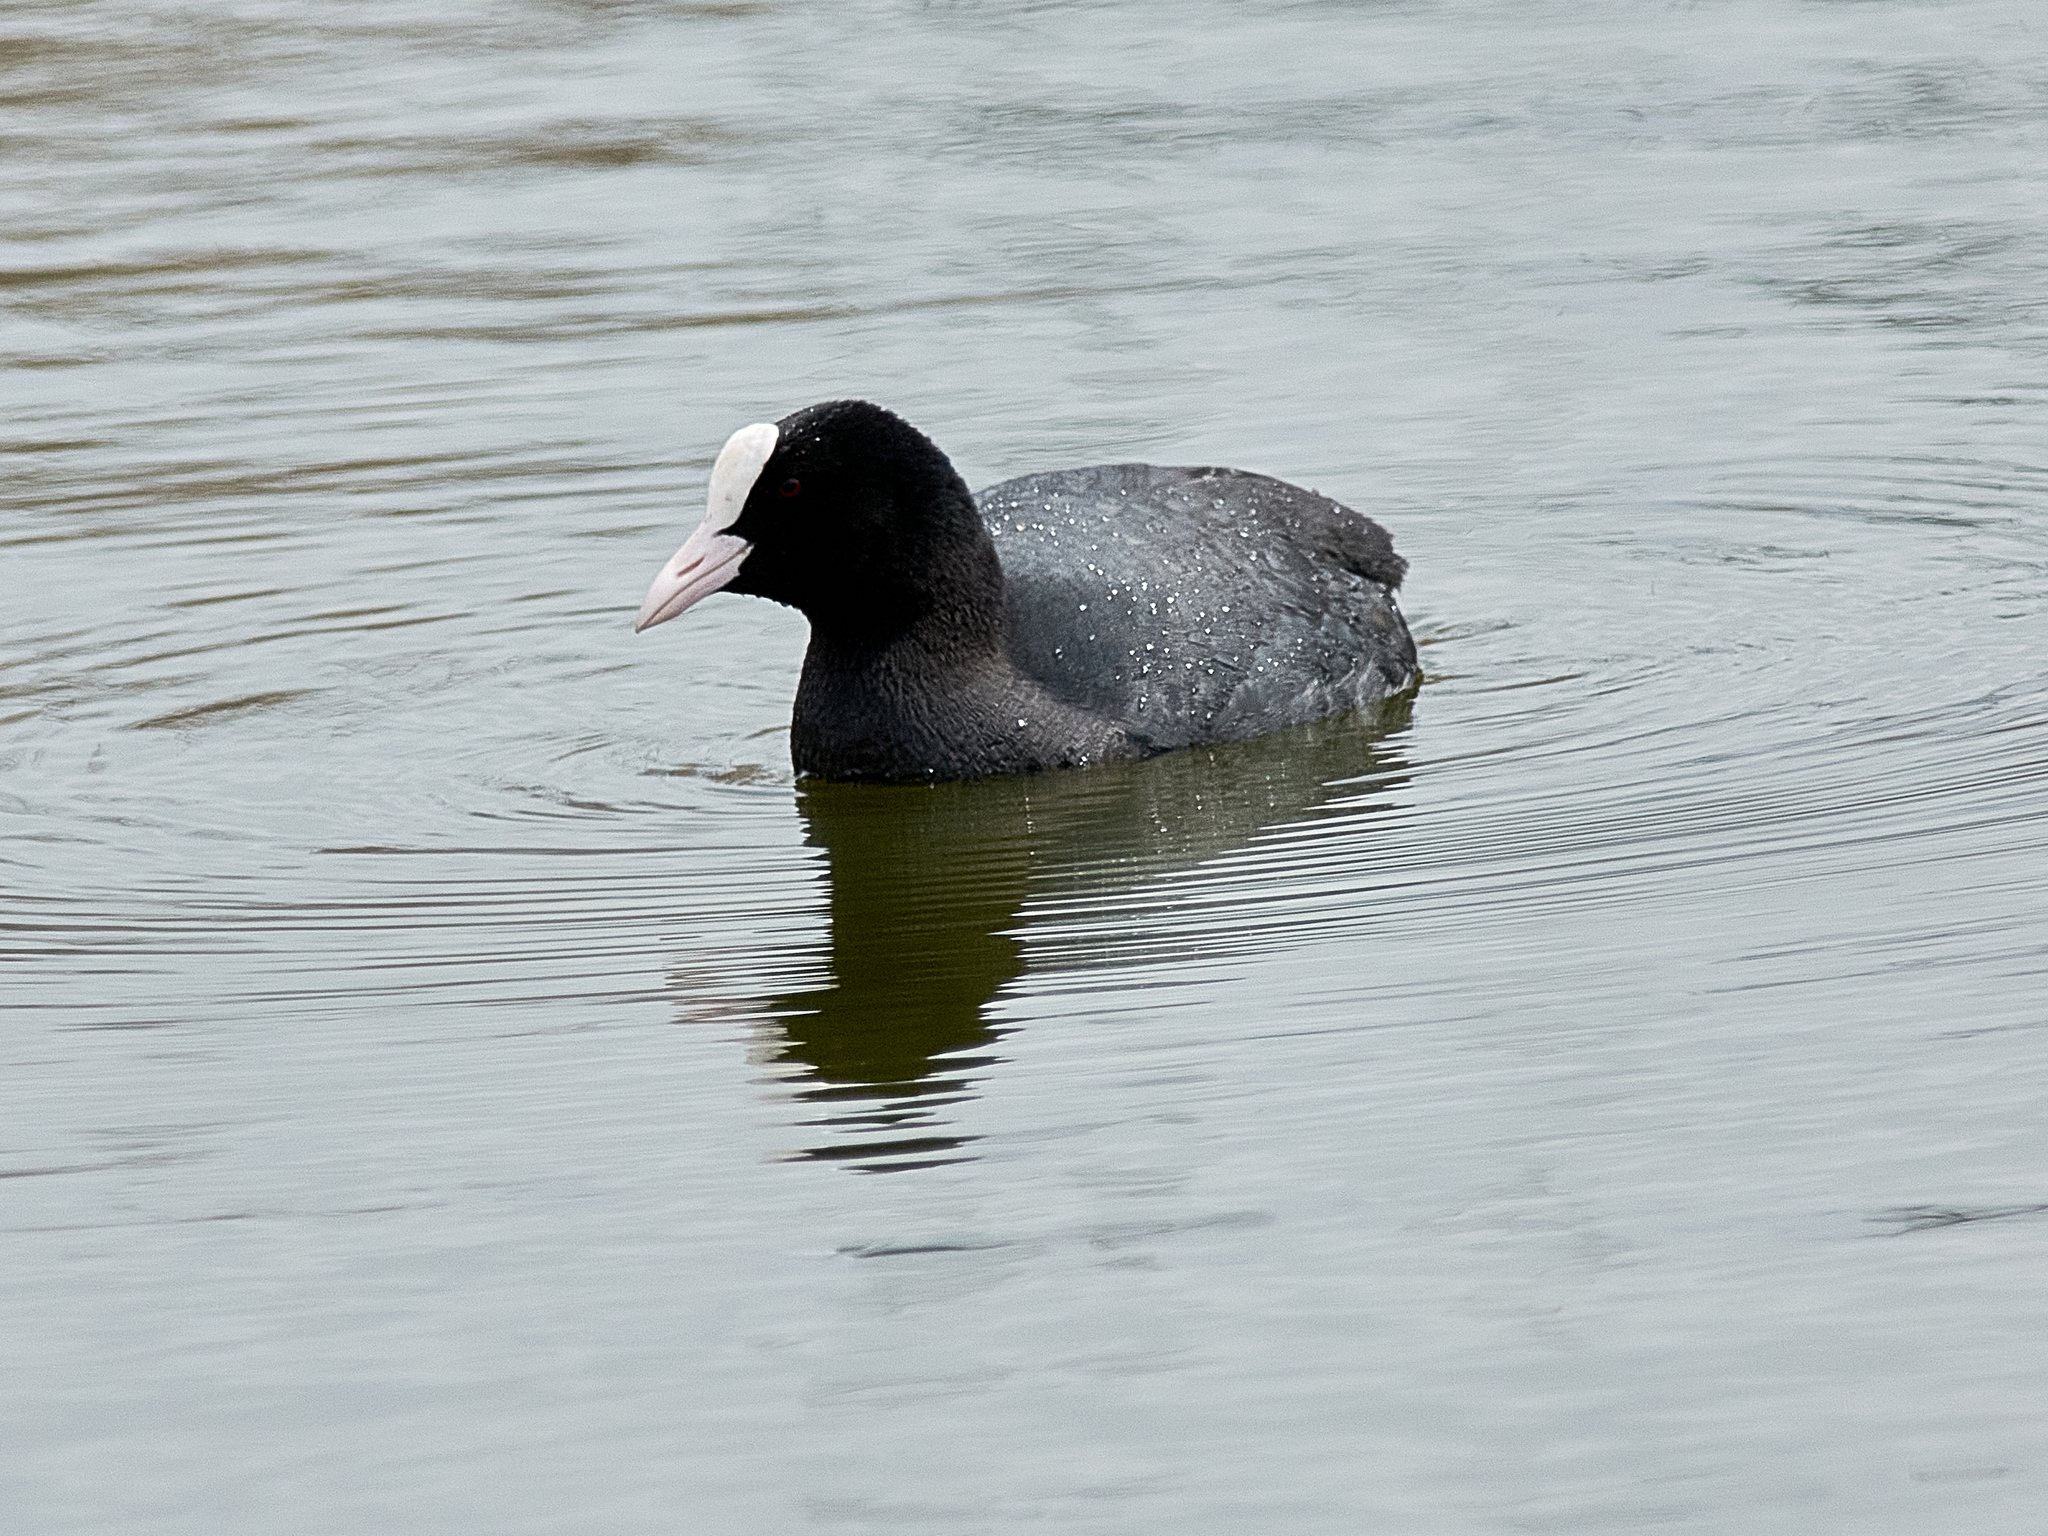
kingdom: Animalia
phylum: Chordata
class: Aves
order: Gruiformes
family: Rallidae
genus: Fulica
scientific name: Fulica atra
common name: Eurasian coot
